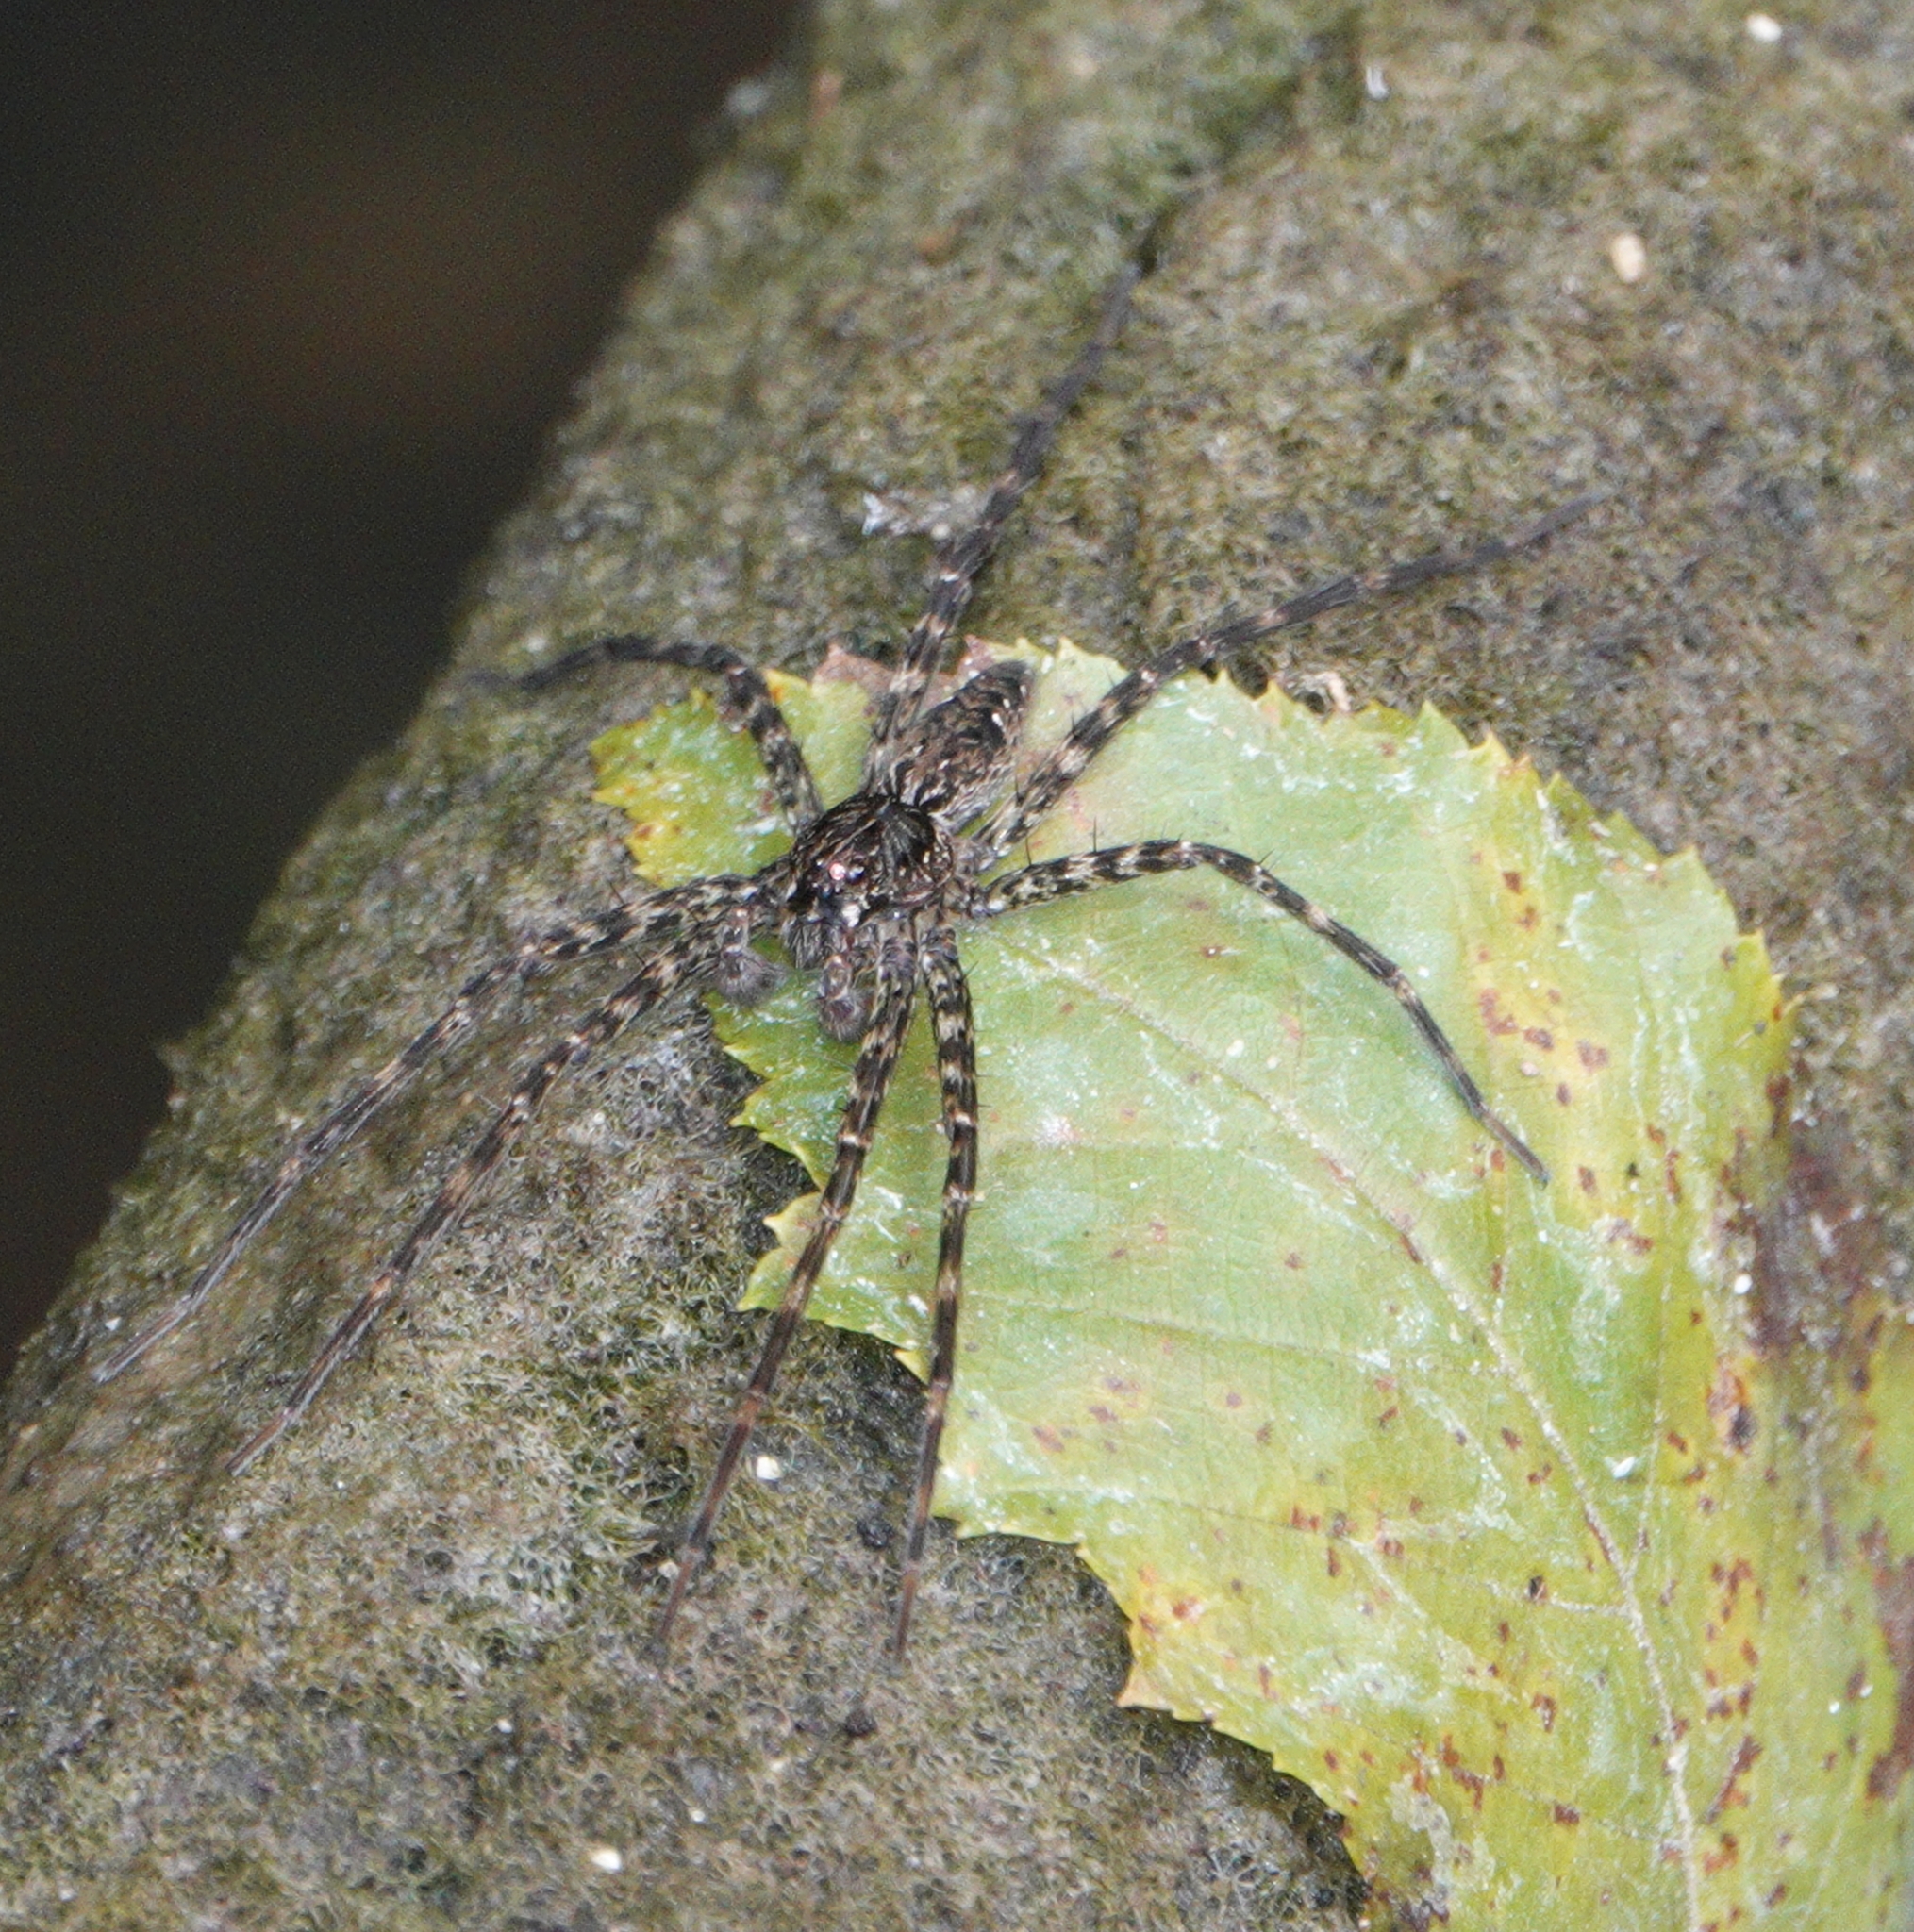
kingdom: Animalia
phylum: Arthropoda
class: Arachnida
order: Araneae
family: Pisauridae
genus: Dolomedes
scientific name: Dolomedes okefinokensis
